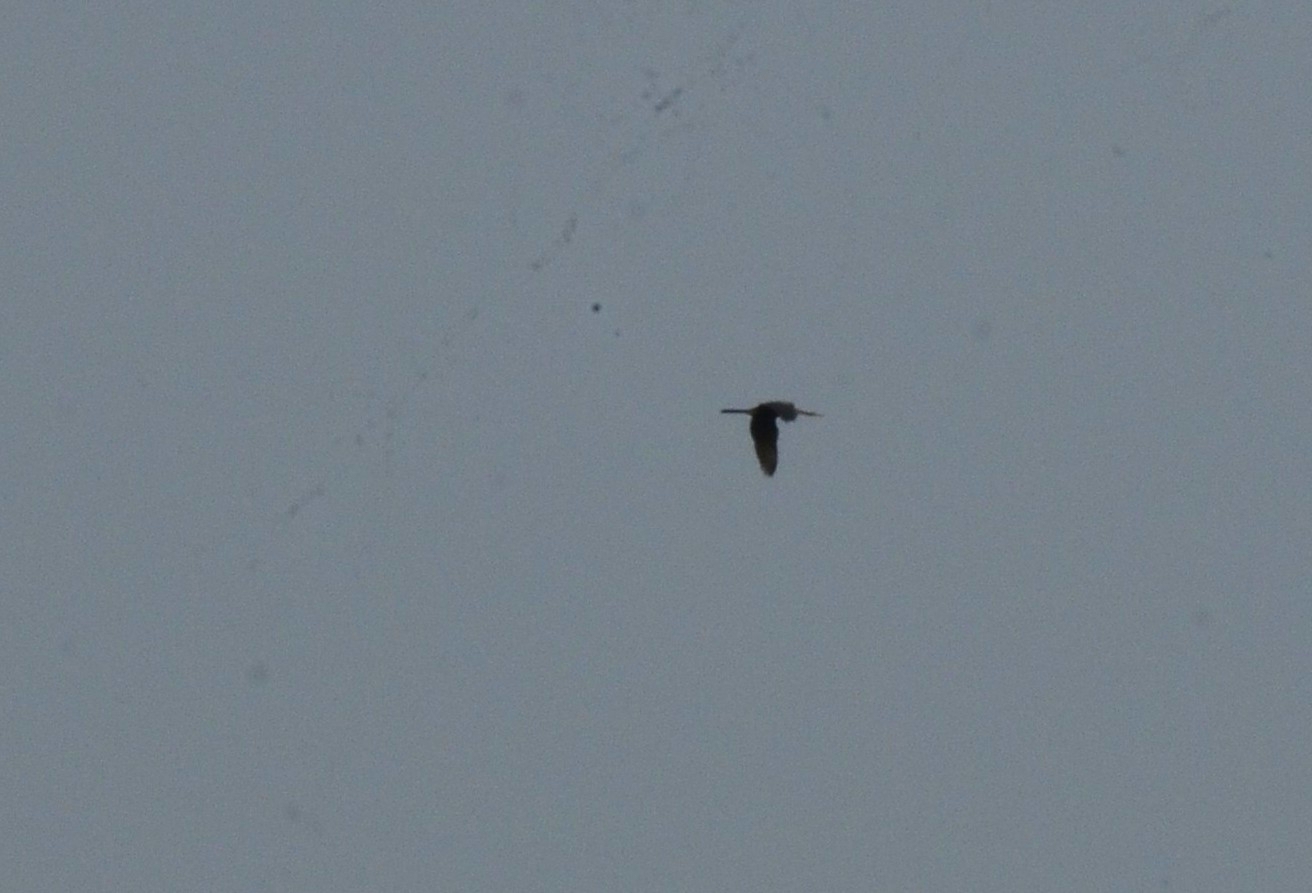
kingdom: Animalia
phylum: Chordata
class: Aves
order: Suliformes
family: Anhingidae
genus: Anhinga
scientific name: Anhinga melanogaster
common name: Oriental darter
